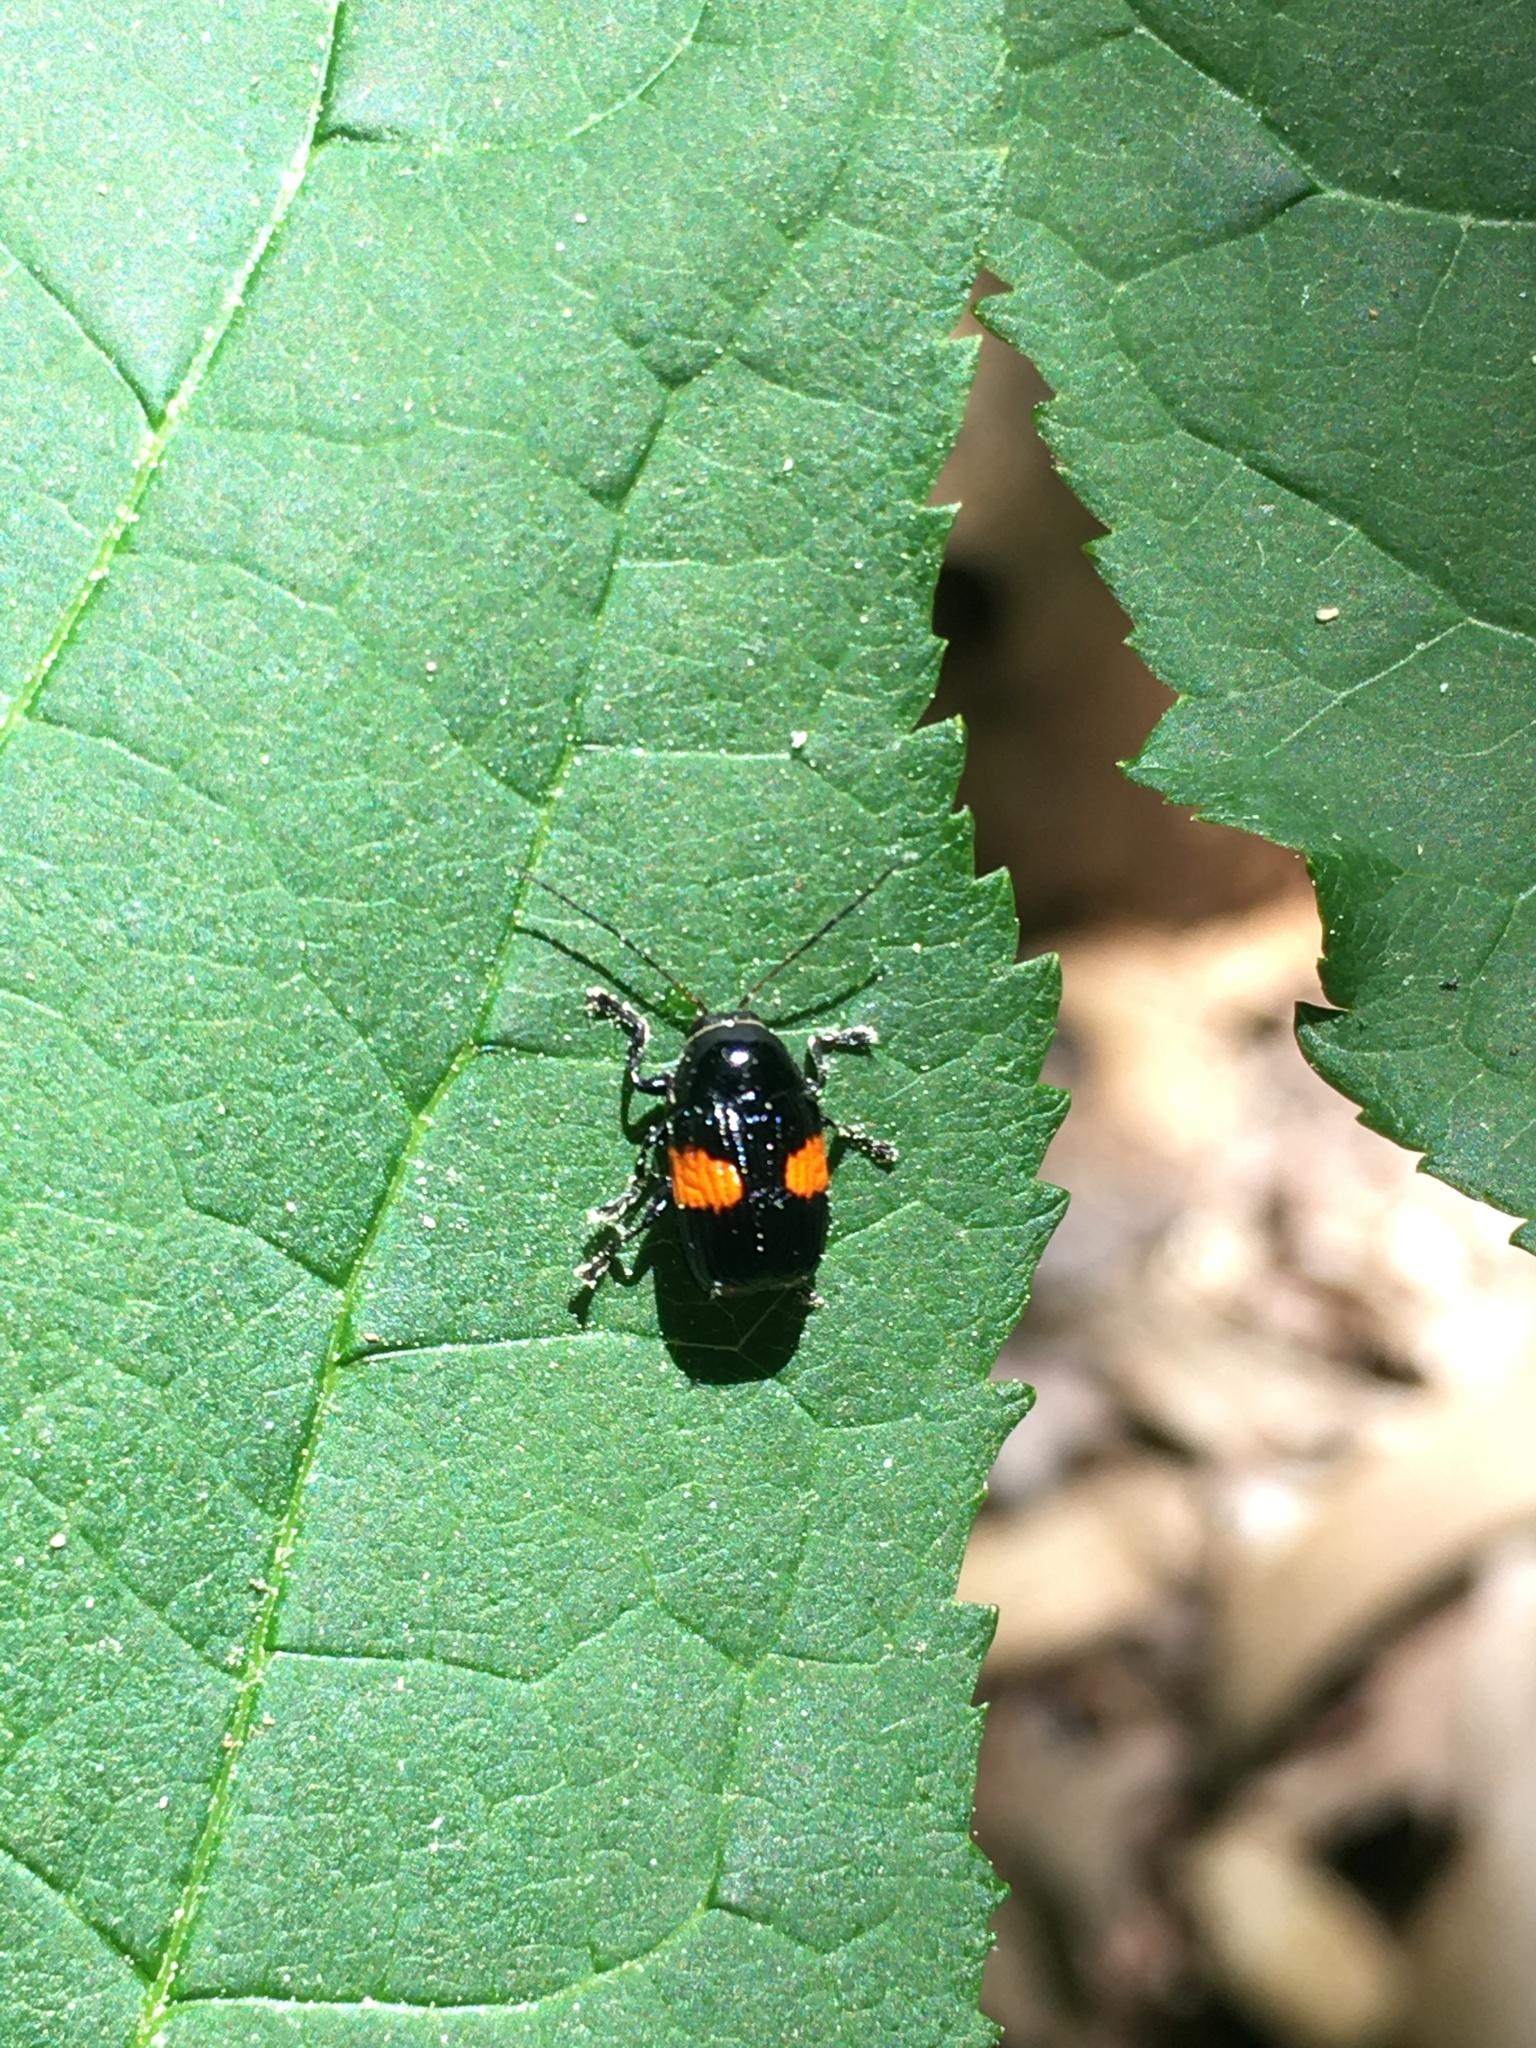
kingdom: Animalia
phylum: Arthropoda
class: Insecta
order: Coleoptera
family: Chrysomelidae
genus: Bassareus
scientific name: Bassareus mammifer
